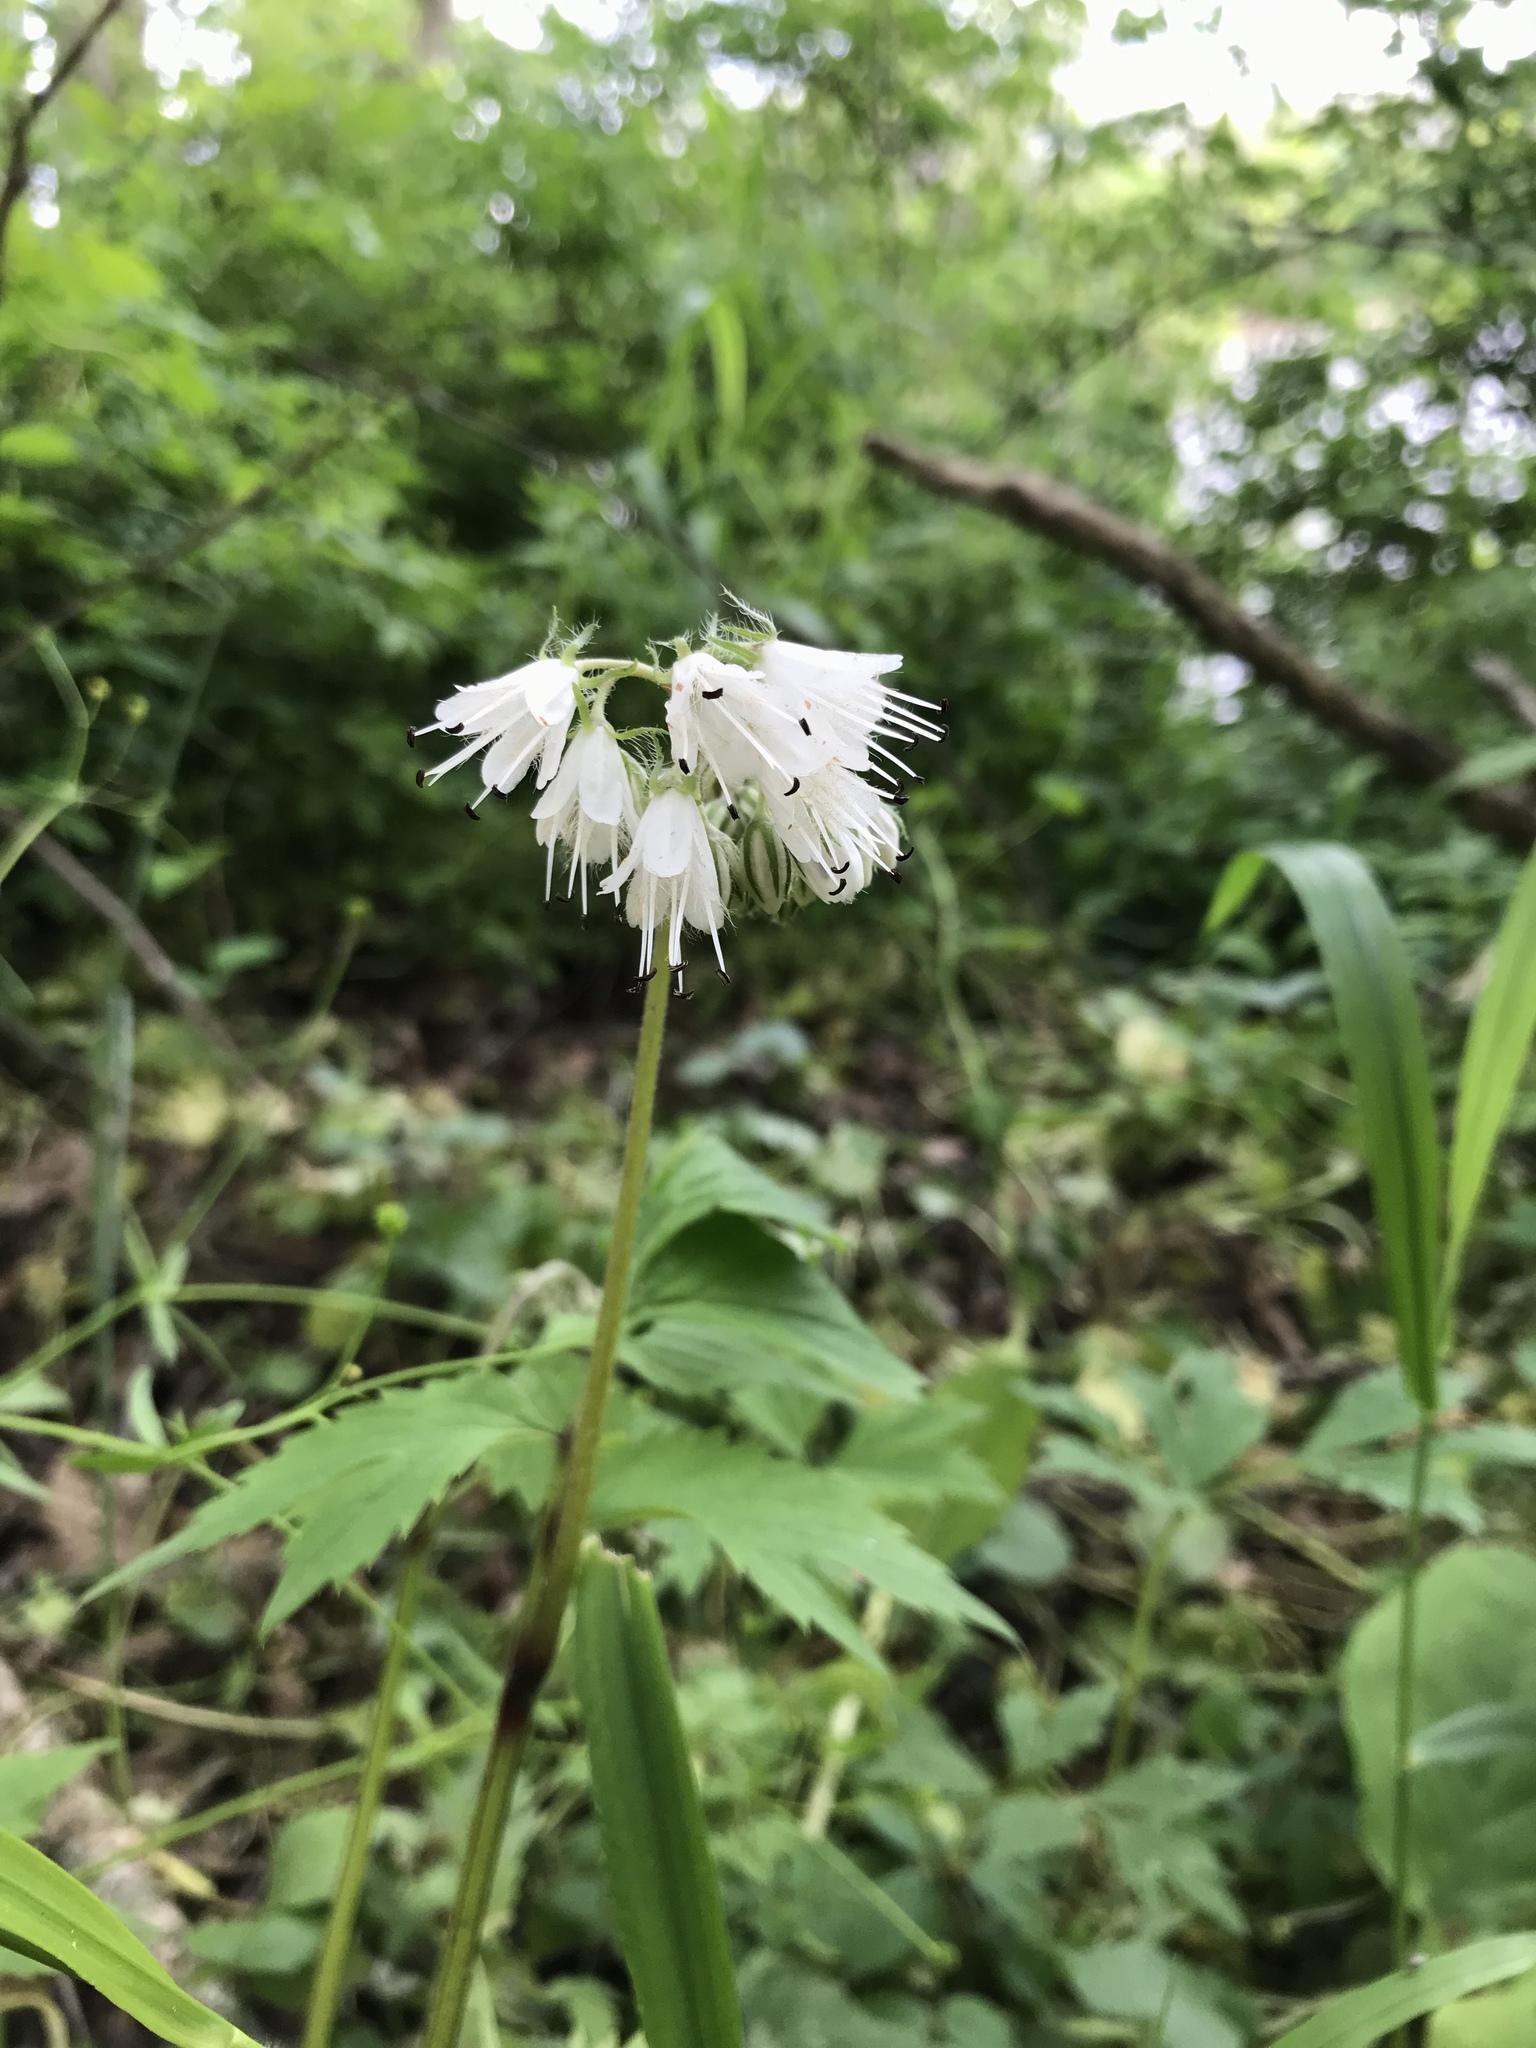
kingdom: Plantae
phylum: Tracheophyta
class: Magnoliopsida
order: Boraginales
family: Hydrophyllaceae
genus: Hydrophyllum
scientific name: Hydrophyllum virginianum
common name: Virginia waterleaf
